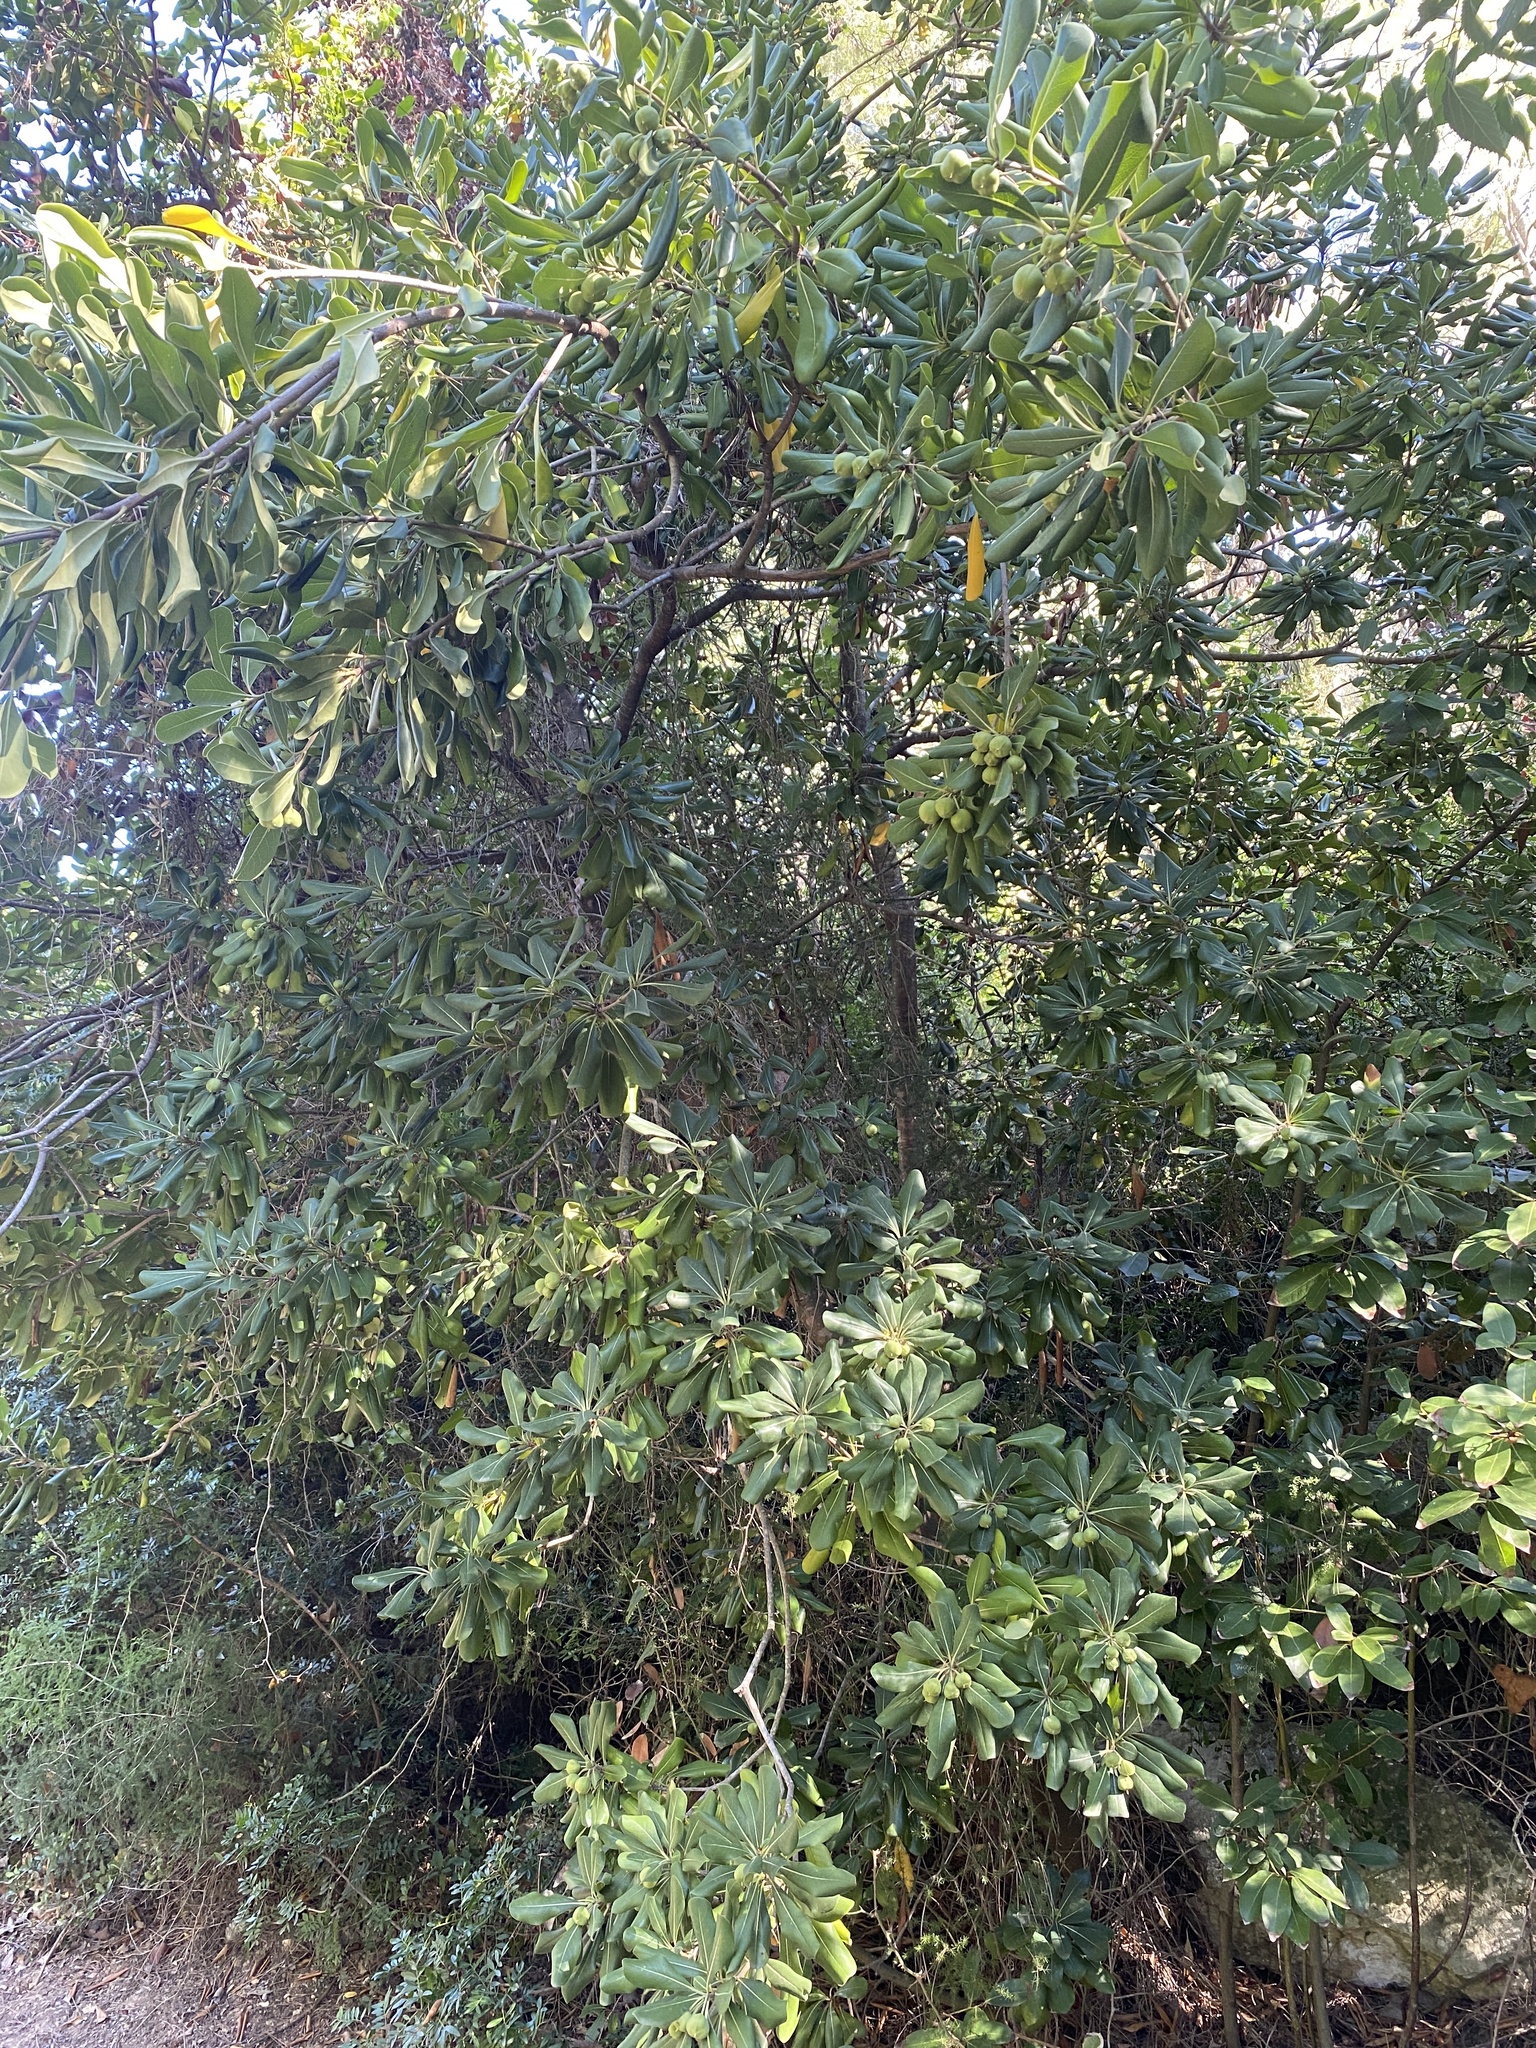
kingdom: Plantae
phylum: Tracheophyta
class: Magnoliopsida
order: Apiales
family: Pittosporaceae
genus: Pittosporum
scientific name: Pittosporum tobira
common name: Japanese cheesewood
